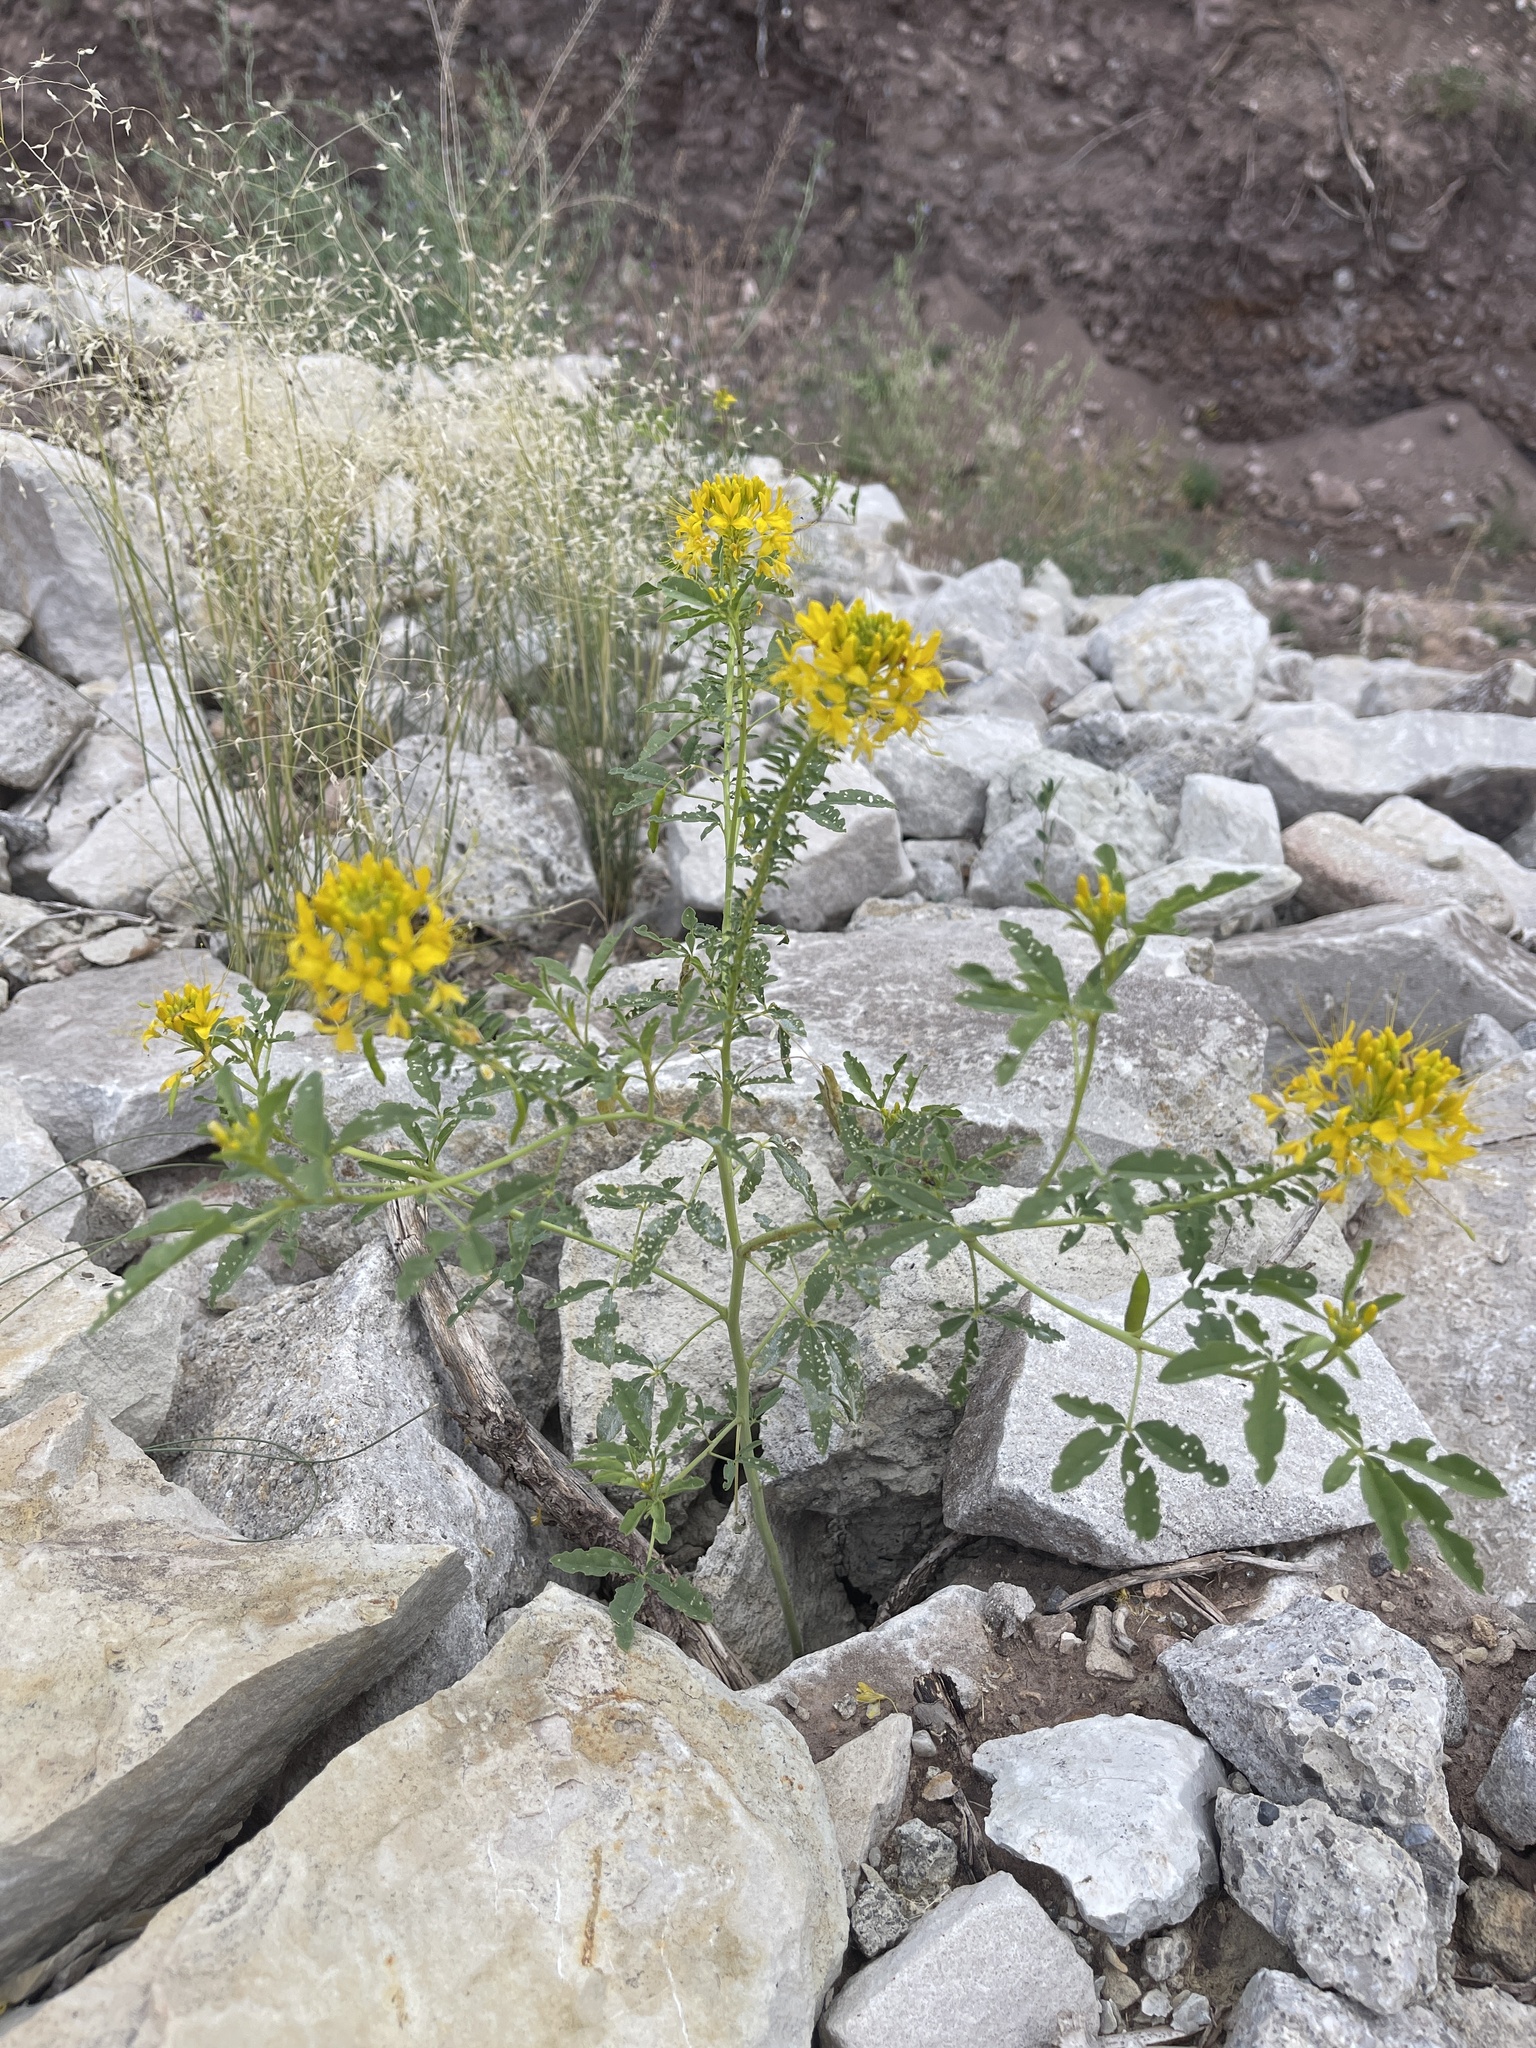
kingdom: Plantae
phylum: Tracheophyta
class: Magnoliopsida
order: Brassicales
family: Cleomaceae
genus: Cleomella
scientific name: Cleomella lutea
